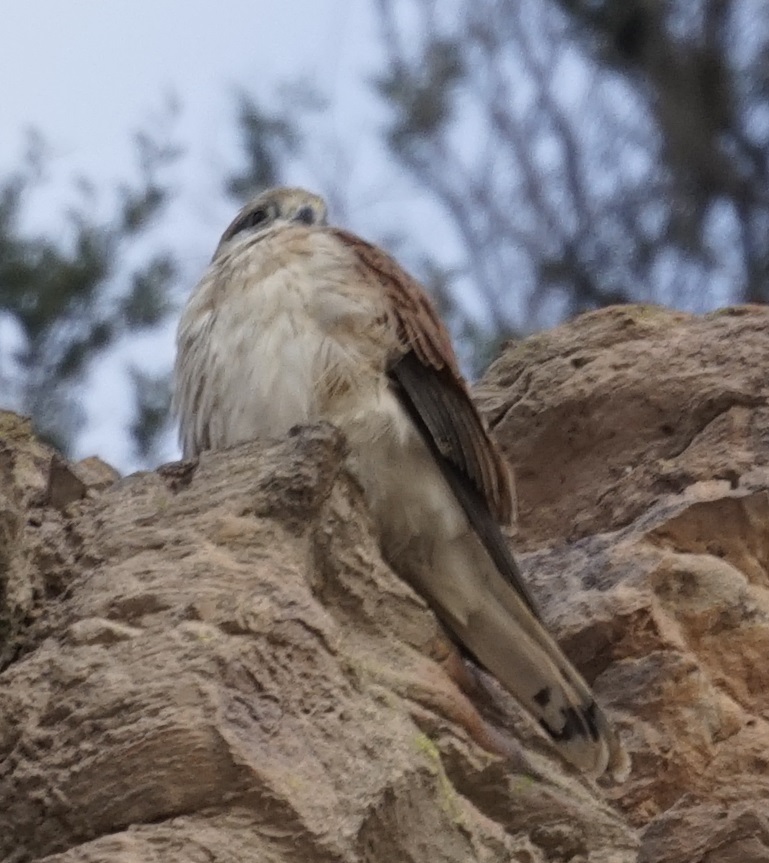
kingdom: Animalia
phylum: Chordata
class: Aves
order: Falconiformes
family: Falconidae
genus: Falco
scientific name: Falco cenchroides
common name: Nankeen kestrel
